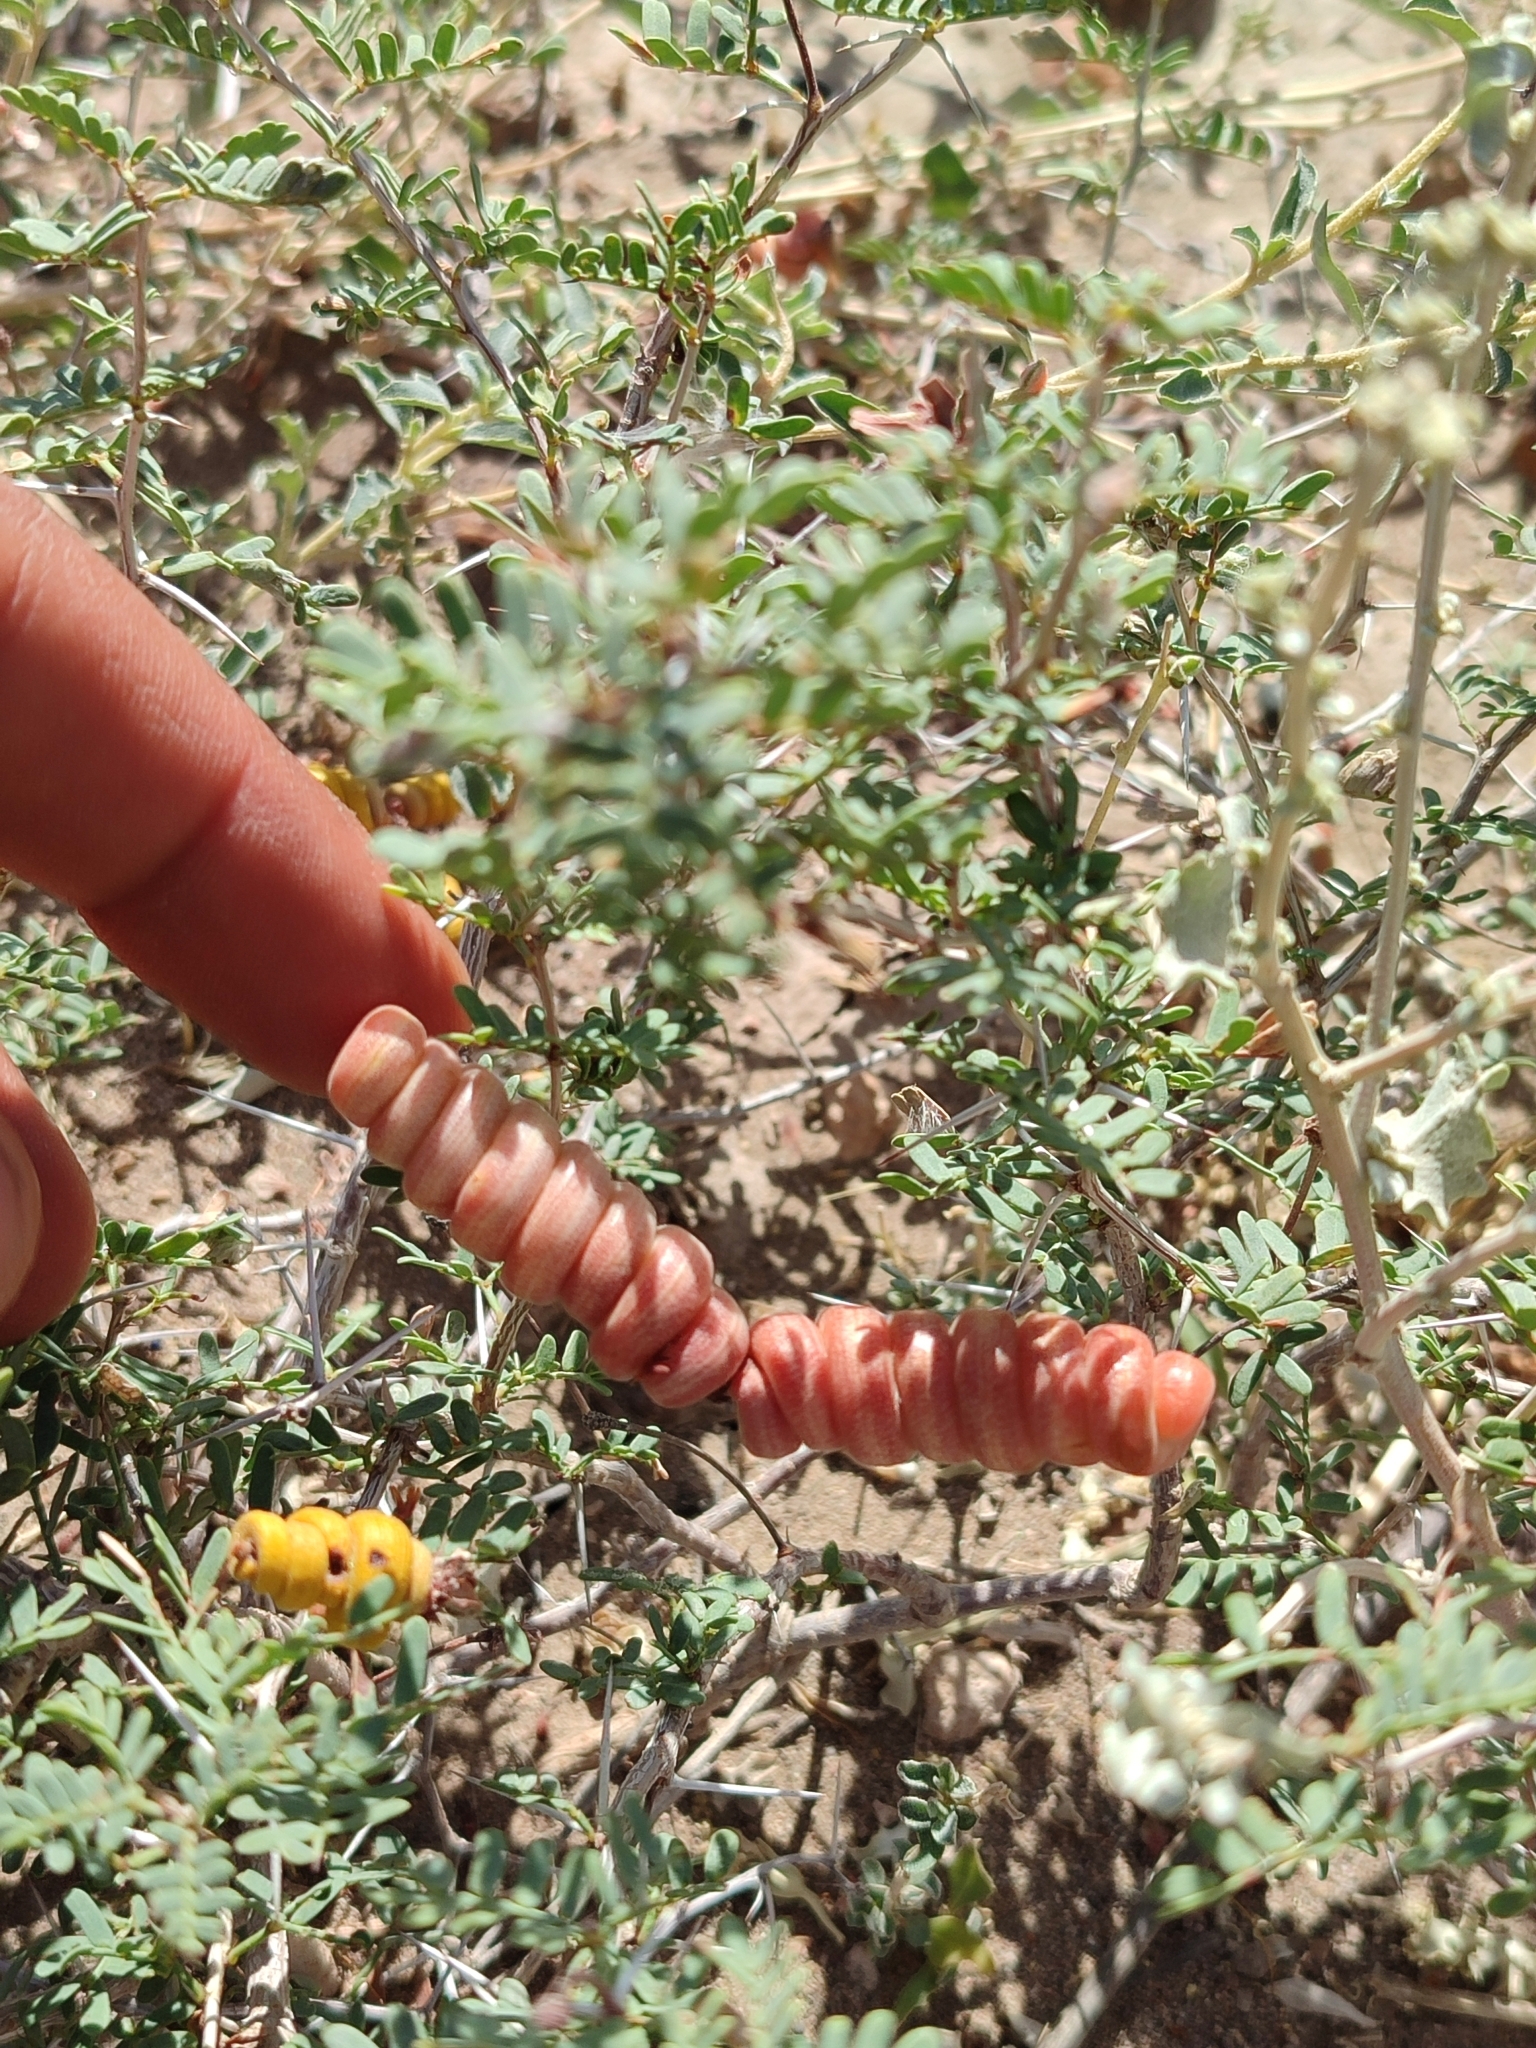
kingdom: Plantae
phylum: Tracheophyta
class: Magnoliopsida
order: Fabales
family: Fabaceae
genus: Prosopis
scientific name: Prosopis strombulifera
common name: Creeping mesquite
